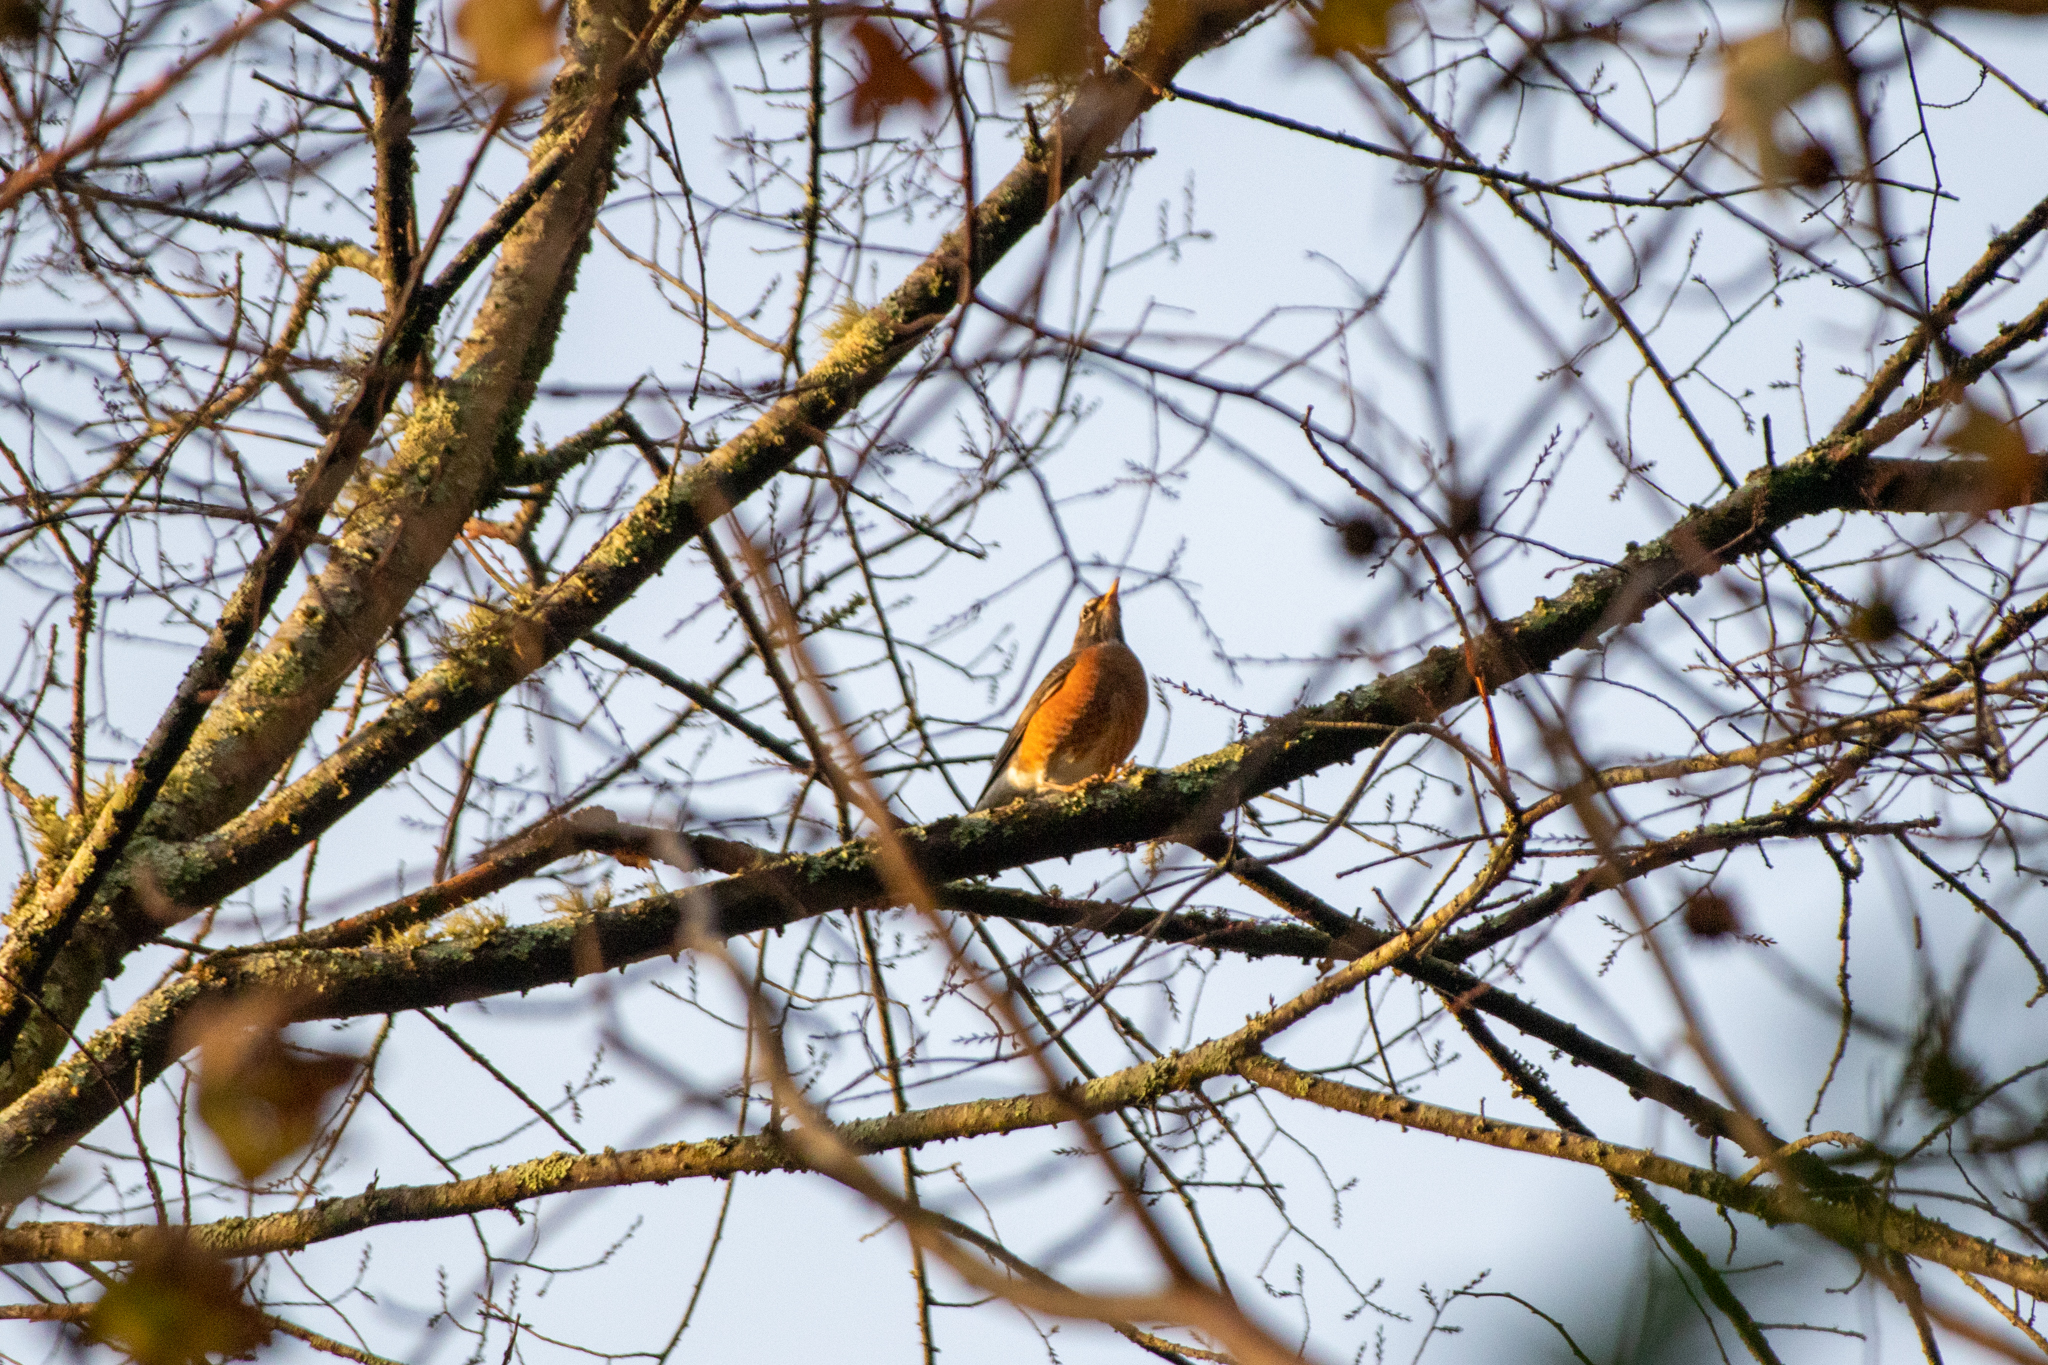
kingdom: Animalia
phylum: Chordata
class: Aves
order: Passeriformes
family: Turdidae
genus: Turdus
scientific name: Turdus migratorius
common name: American robin
